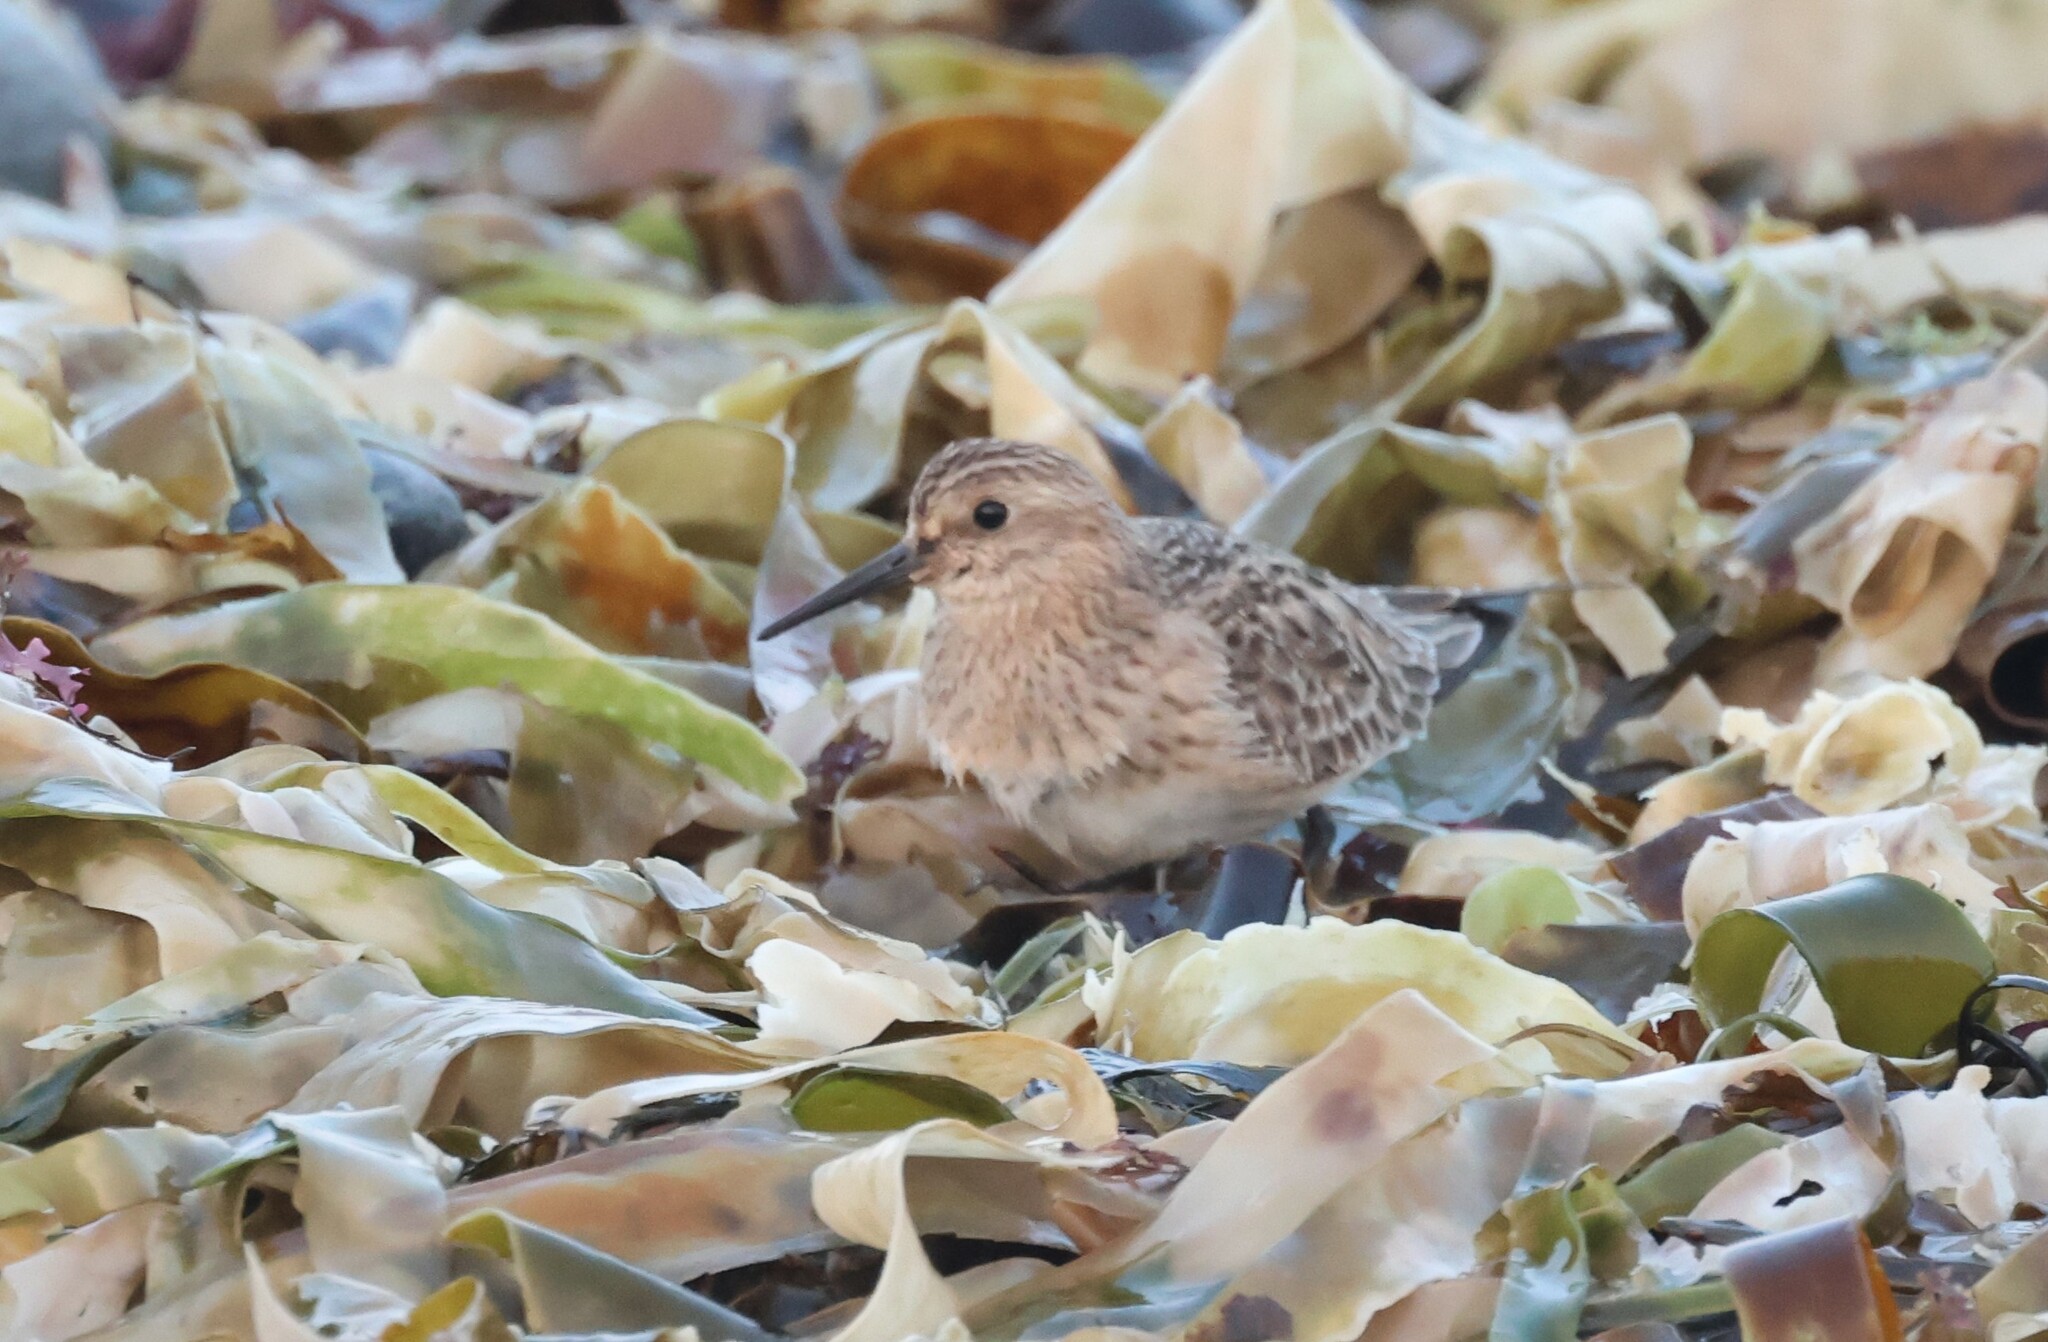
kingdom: Animalia
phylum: Chordata
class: Aves
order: Charadriiformes
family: Scolopacidae
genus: Calidris
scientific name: Calidris bairdii
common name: Baird's sandpiper
